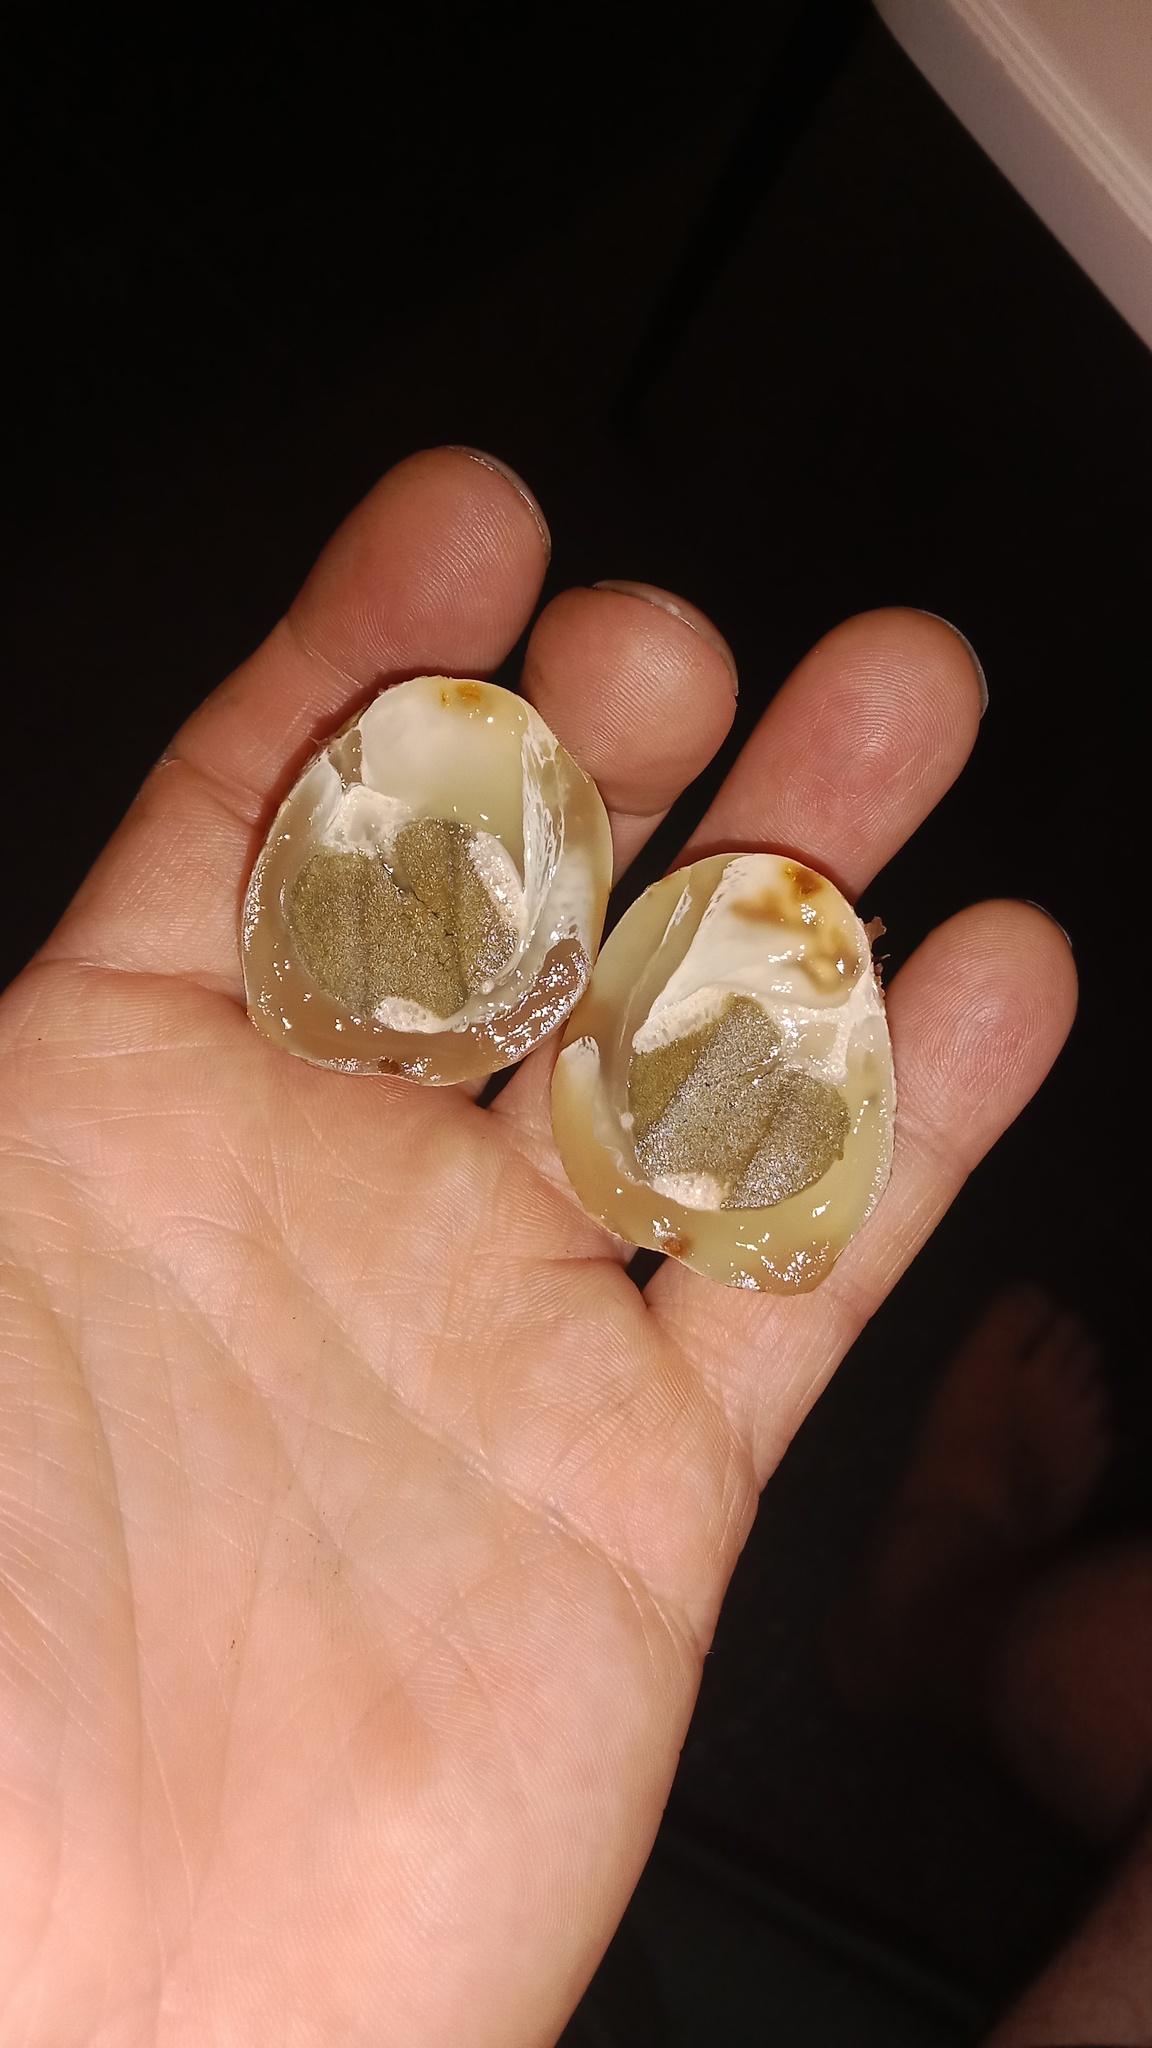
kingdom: Fungi
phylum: Basidiomycota
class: Agaricomycetes
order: Phallales
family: Phallaceae
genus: Clathrus
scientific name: Clathrus archeri
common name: Devil's fingers
